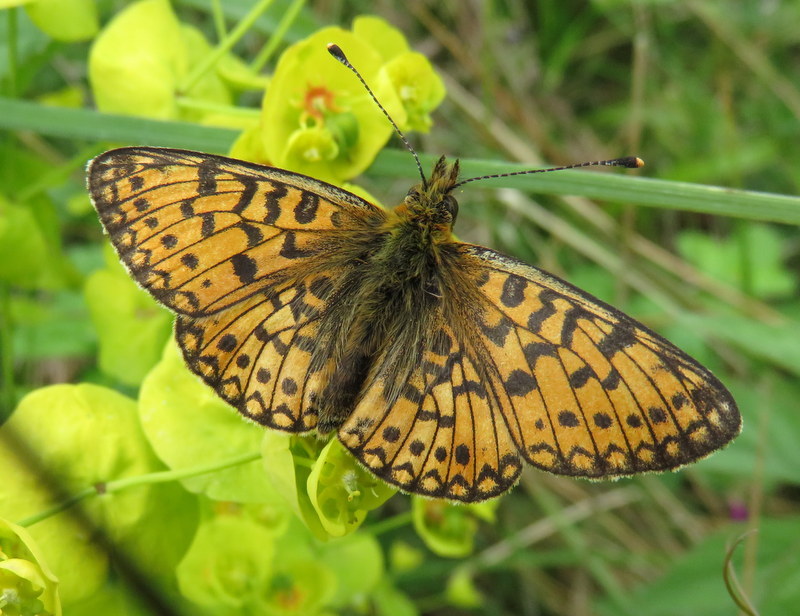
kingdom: Animalia
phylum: Arthropoda
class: Insecta
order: Lepidoptera
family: Nymphalidae
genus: Boloria
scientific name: Boloria selene
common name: Small pearl-bordered fritillary
